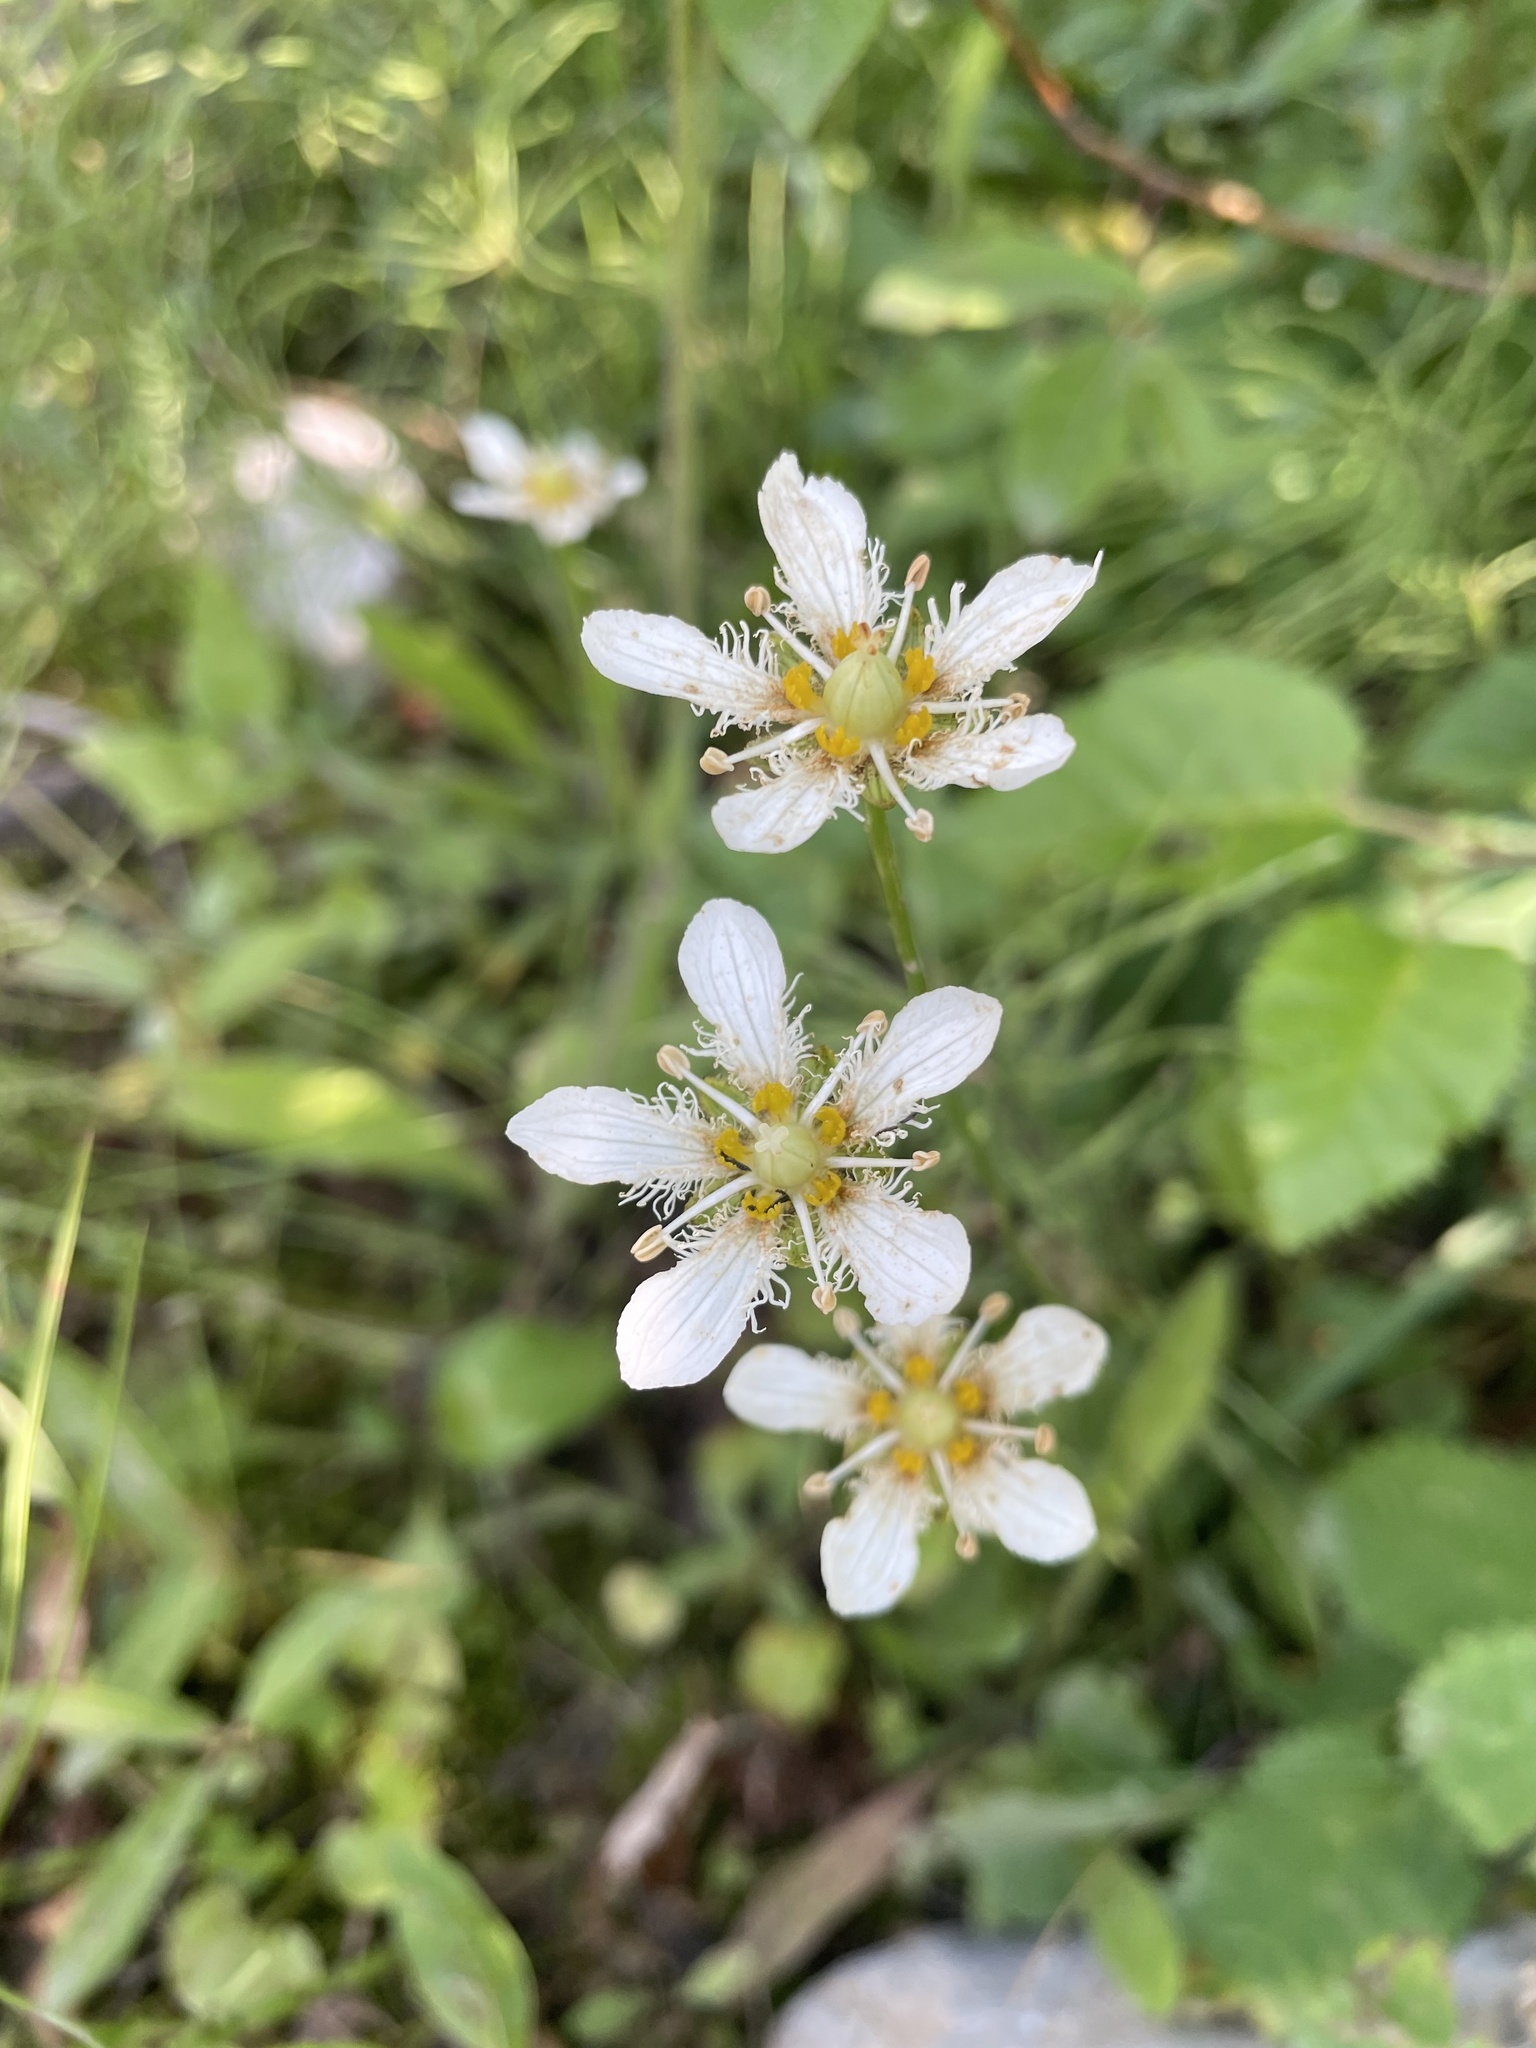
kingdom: Plantae
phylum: Tracheophyta
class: Magnoliopsida
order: Celastrales
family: Parnassiaceae
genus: Parnassia
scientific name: Parnassia fimbriata
